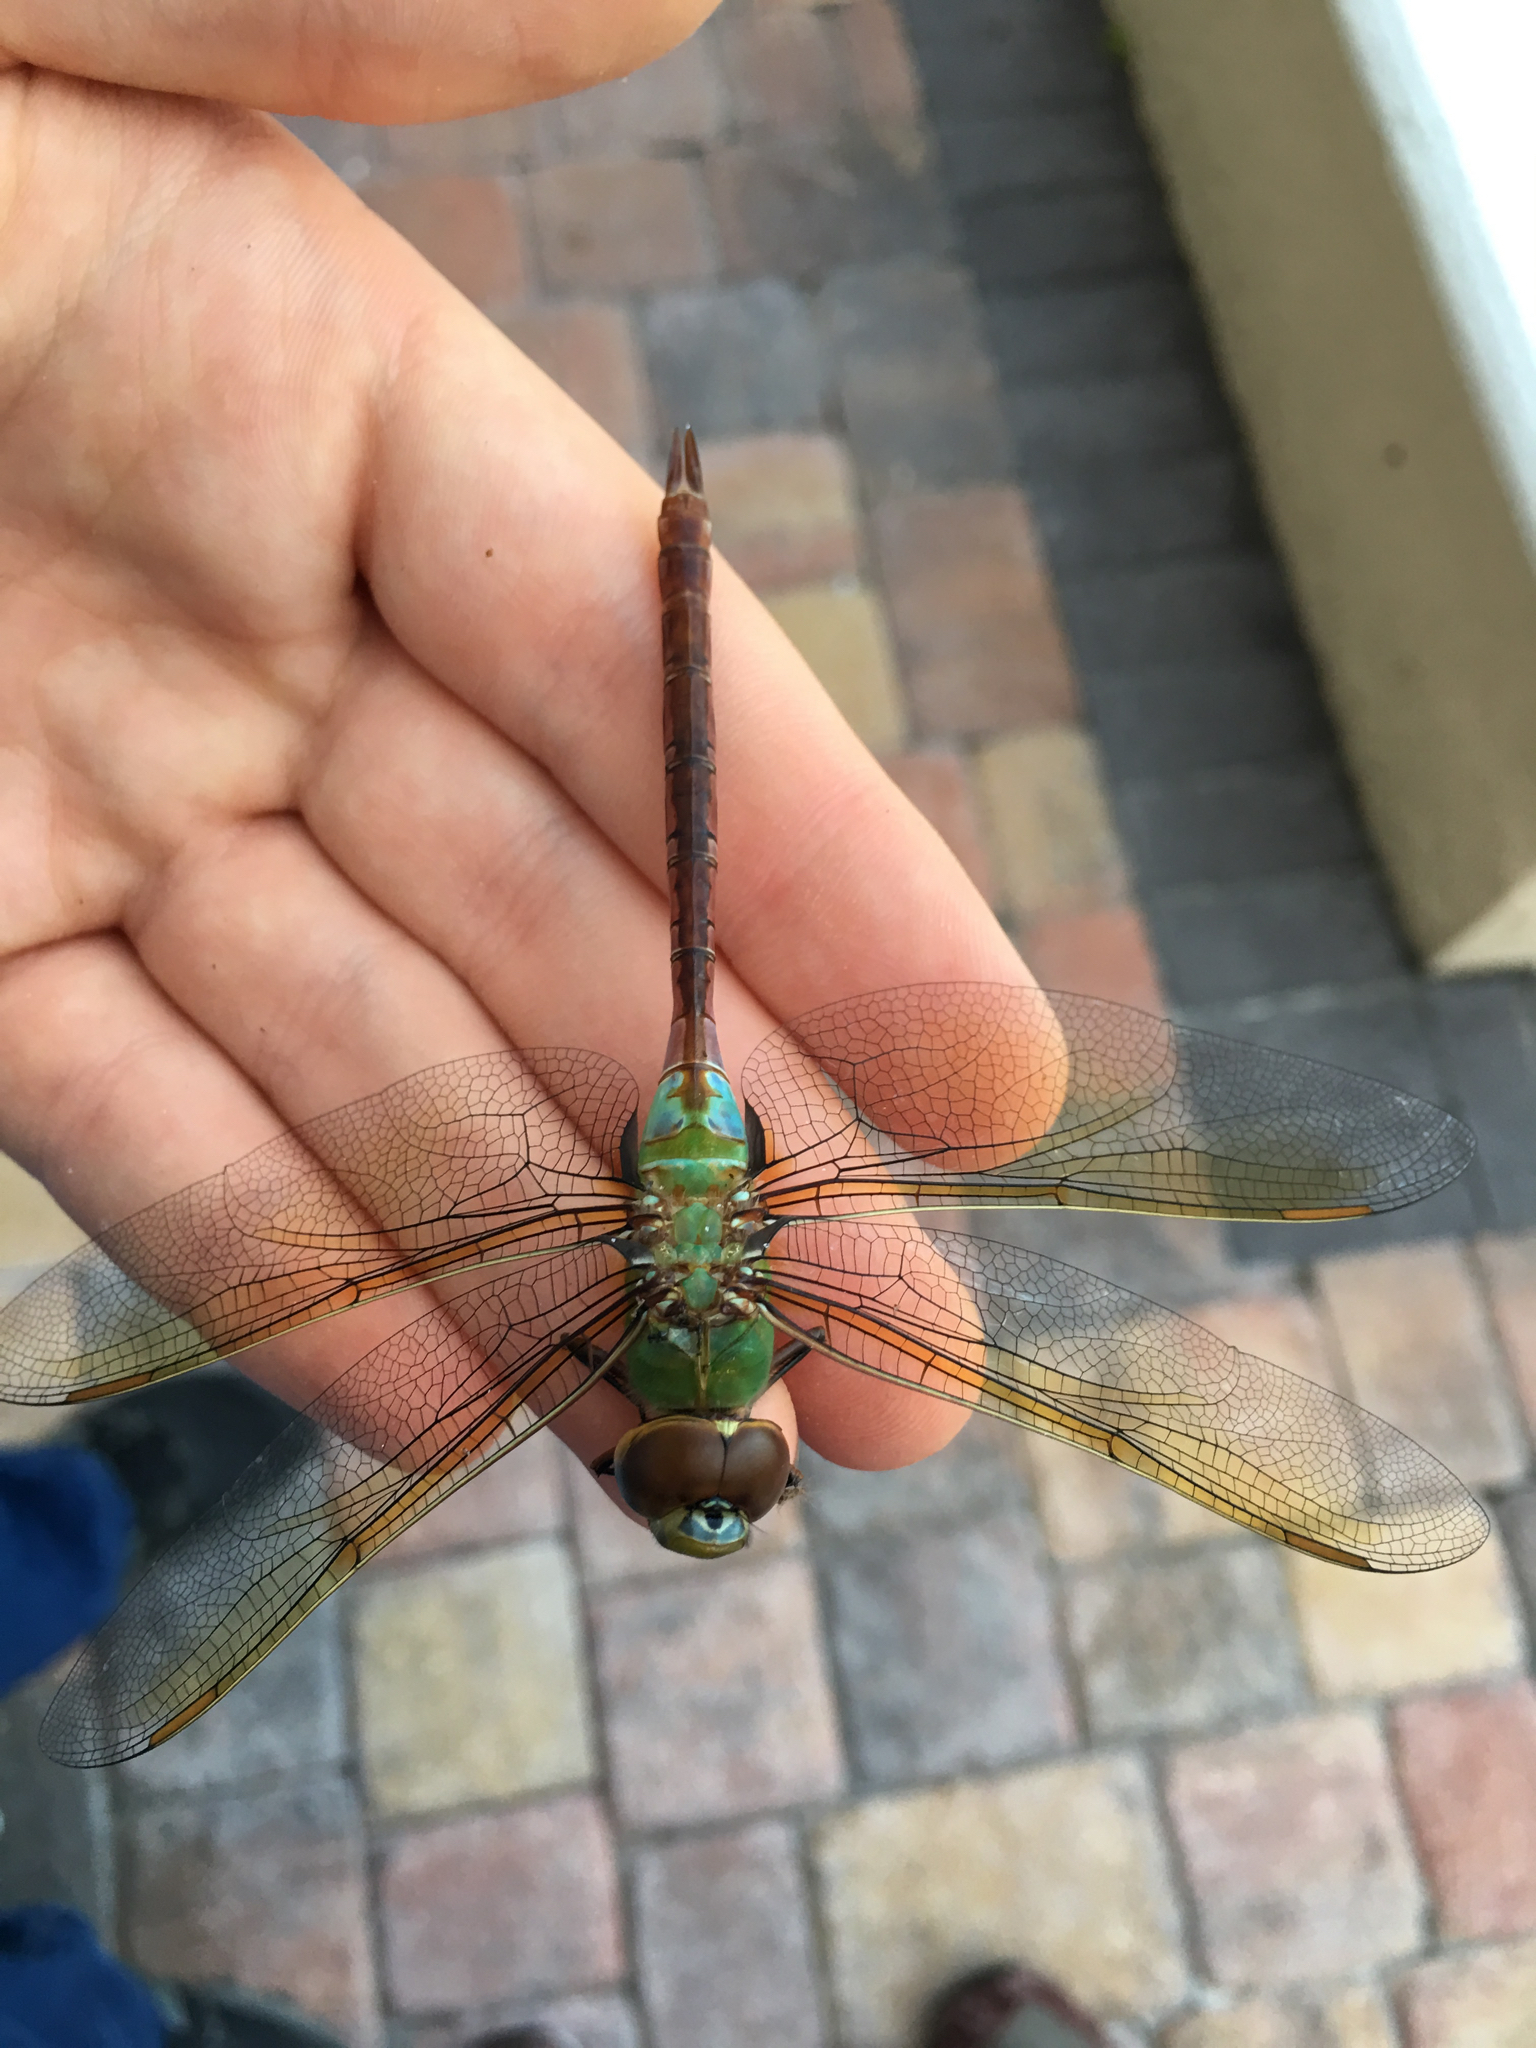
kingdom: Animalia
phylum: Arthropoda
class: Insecta
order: Odonata
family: Aeshnidae
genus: Anax
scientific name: Anax junius
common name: Common green darner
